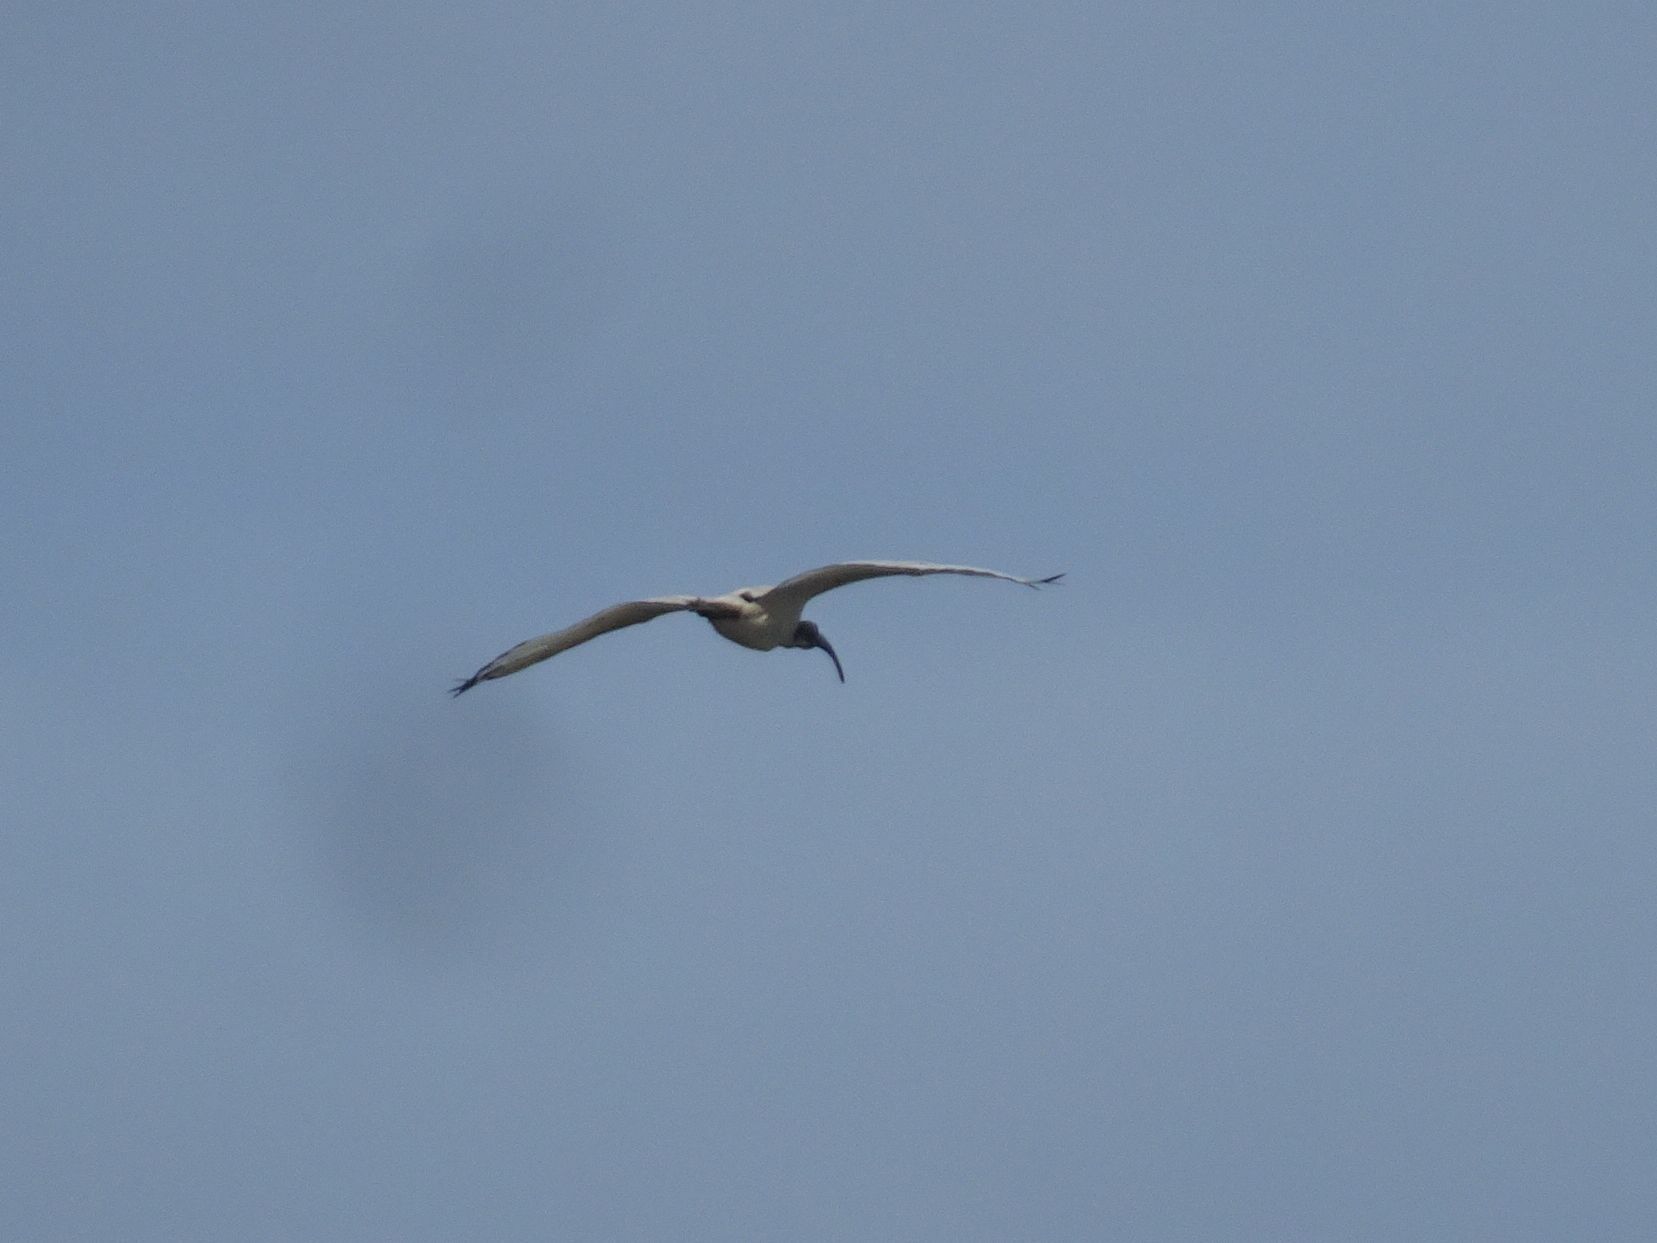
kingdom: Animalia
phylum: Chordata
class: Aves
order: Pelecaniformes
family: Threskiornithidae
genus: Threskiornis
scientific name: Threskiornis aethiopicus
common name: Sacred ibis
